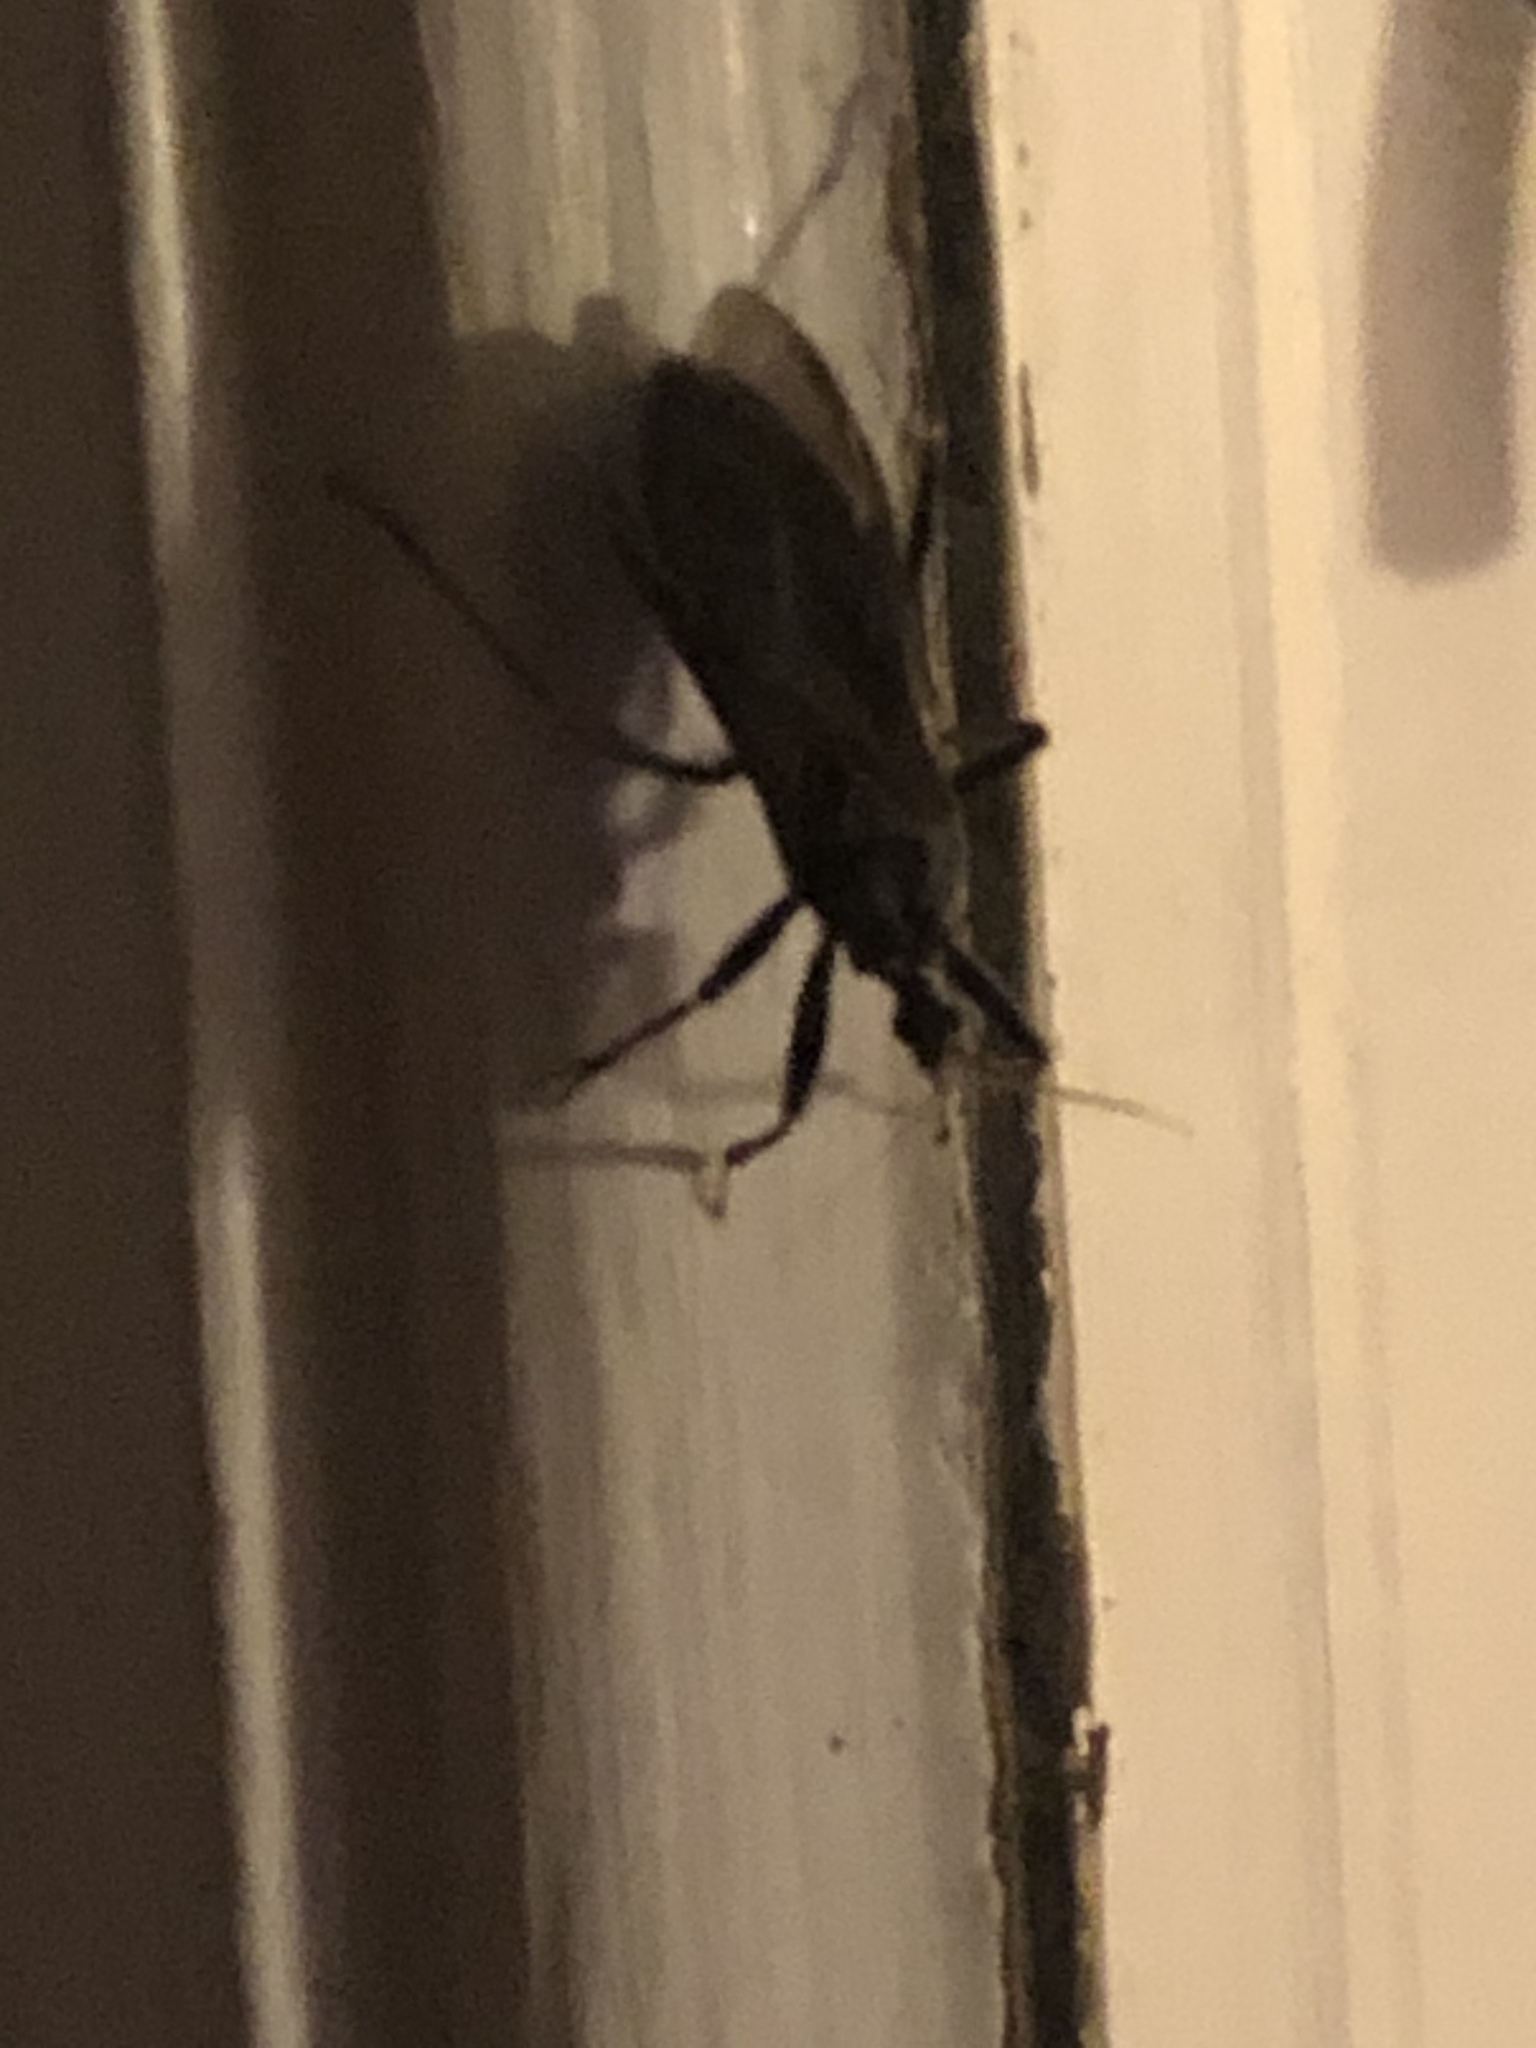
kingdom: Animalia
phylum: Arthropoda
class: Insecta
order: Hemiptera
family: Reduviidae
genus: Reduvius
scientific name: Reduvius personatus
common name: Masked hunter
